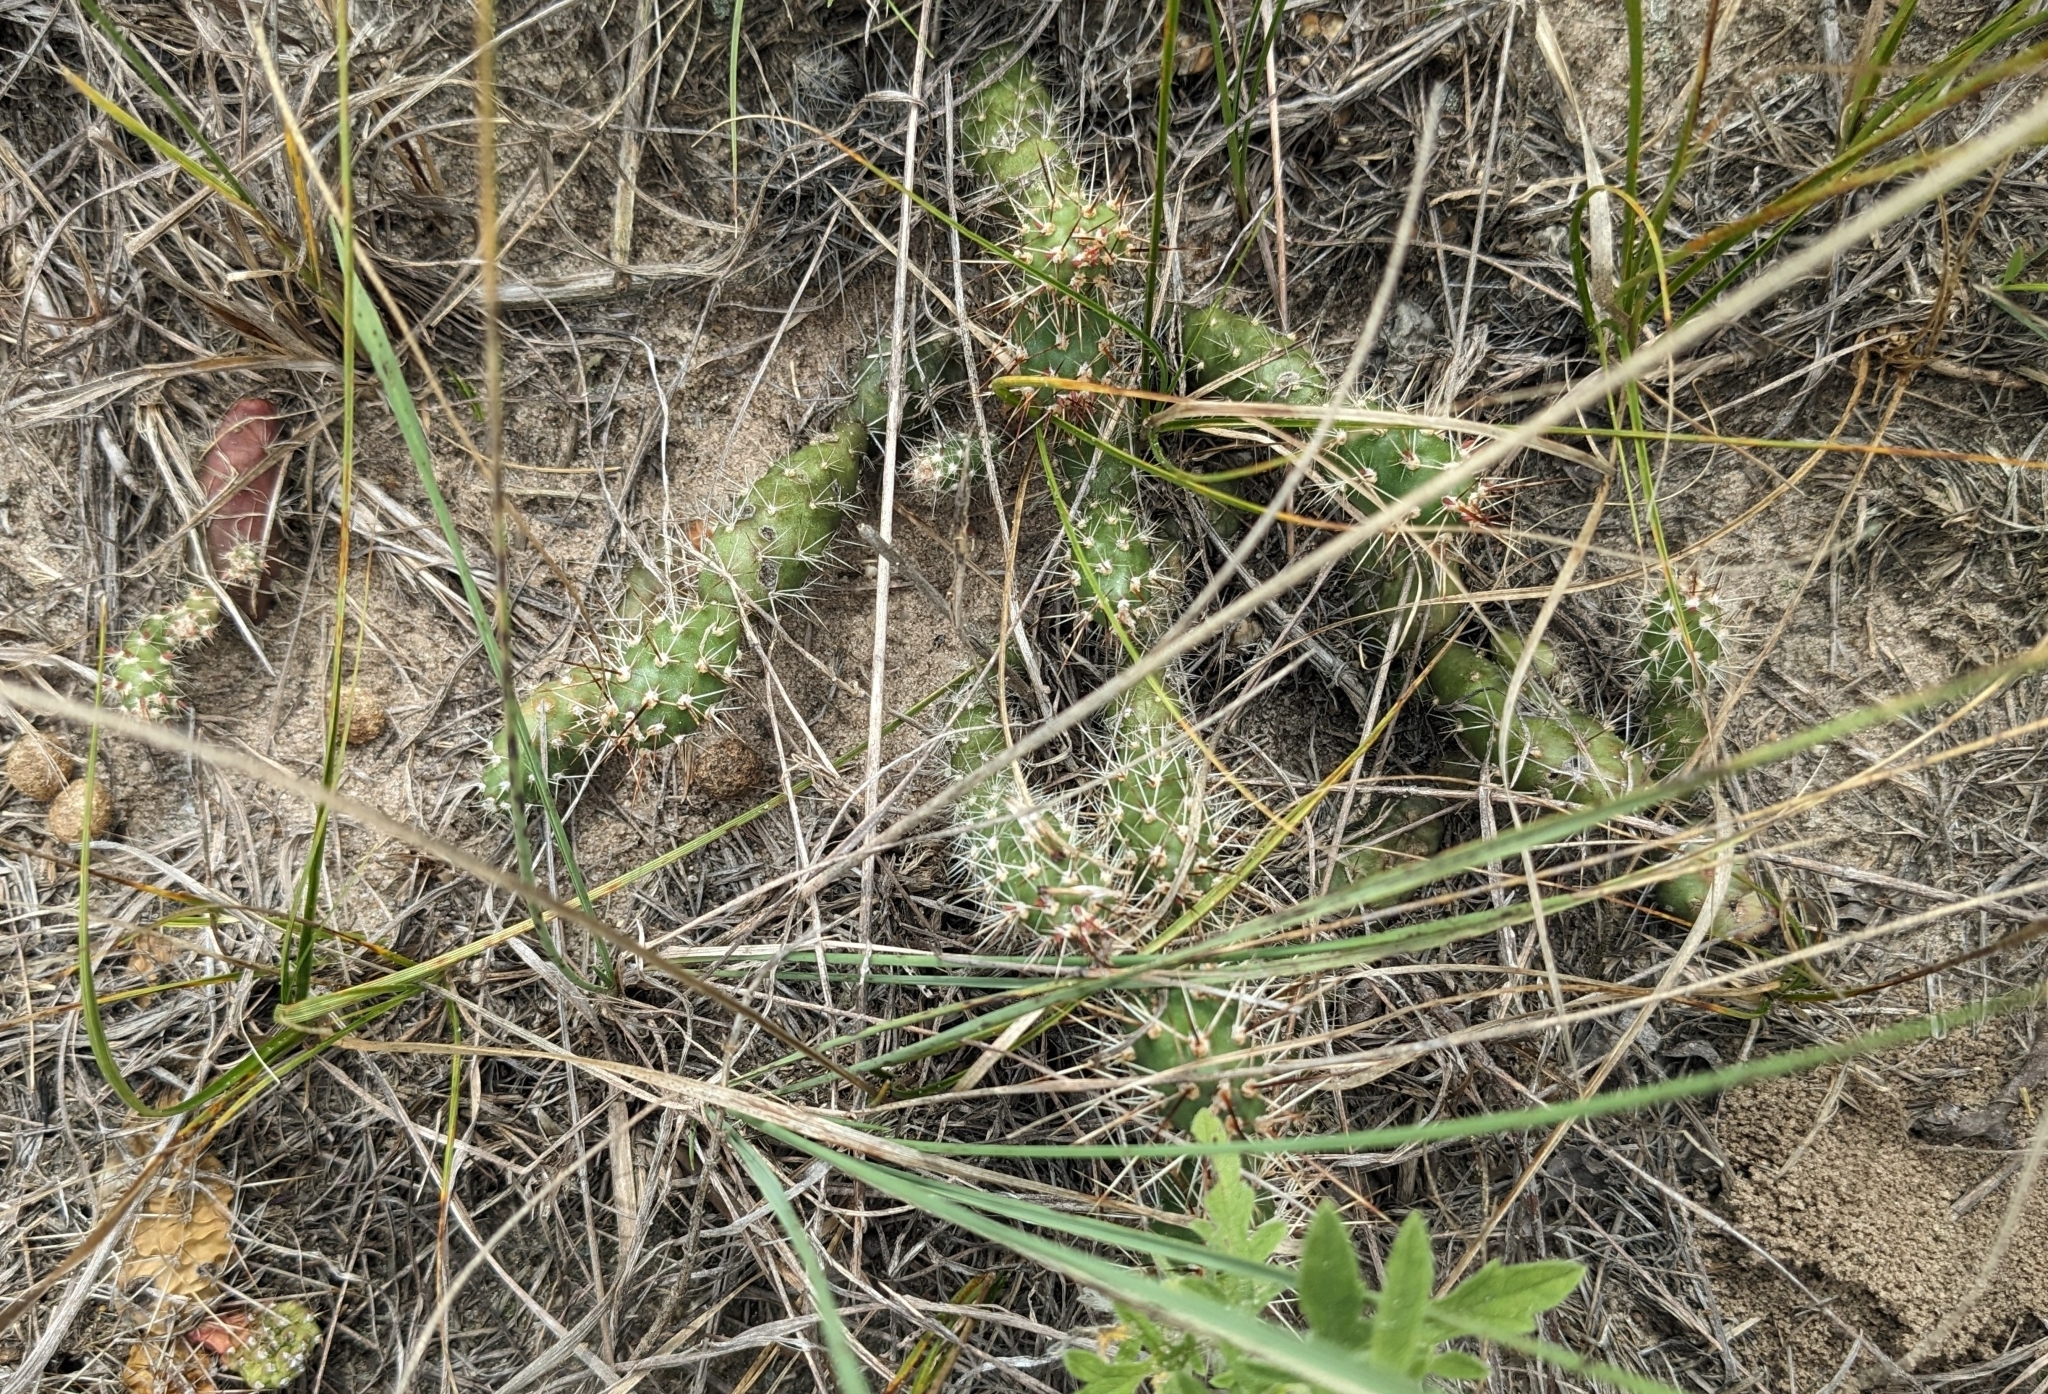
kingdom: Plantae
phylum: Tracheophyta
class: Magnoliopsida
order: Caryophyllales
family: Cactaceae
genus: Opuntia
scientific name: Opuntia fragilis
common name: Brittle cactus
